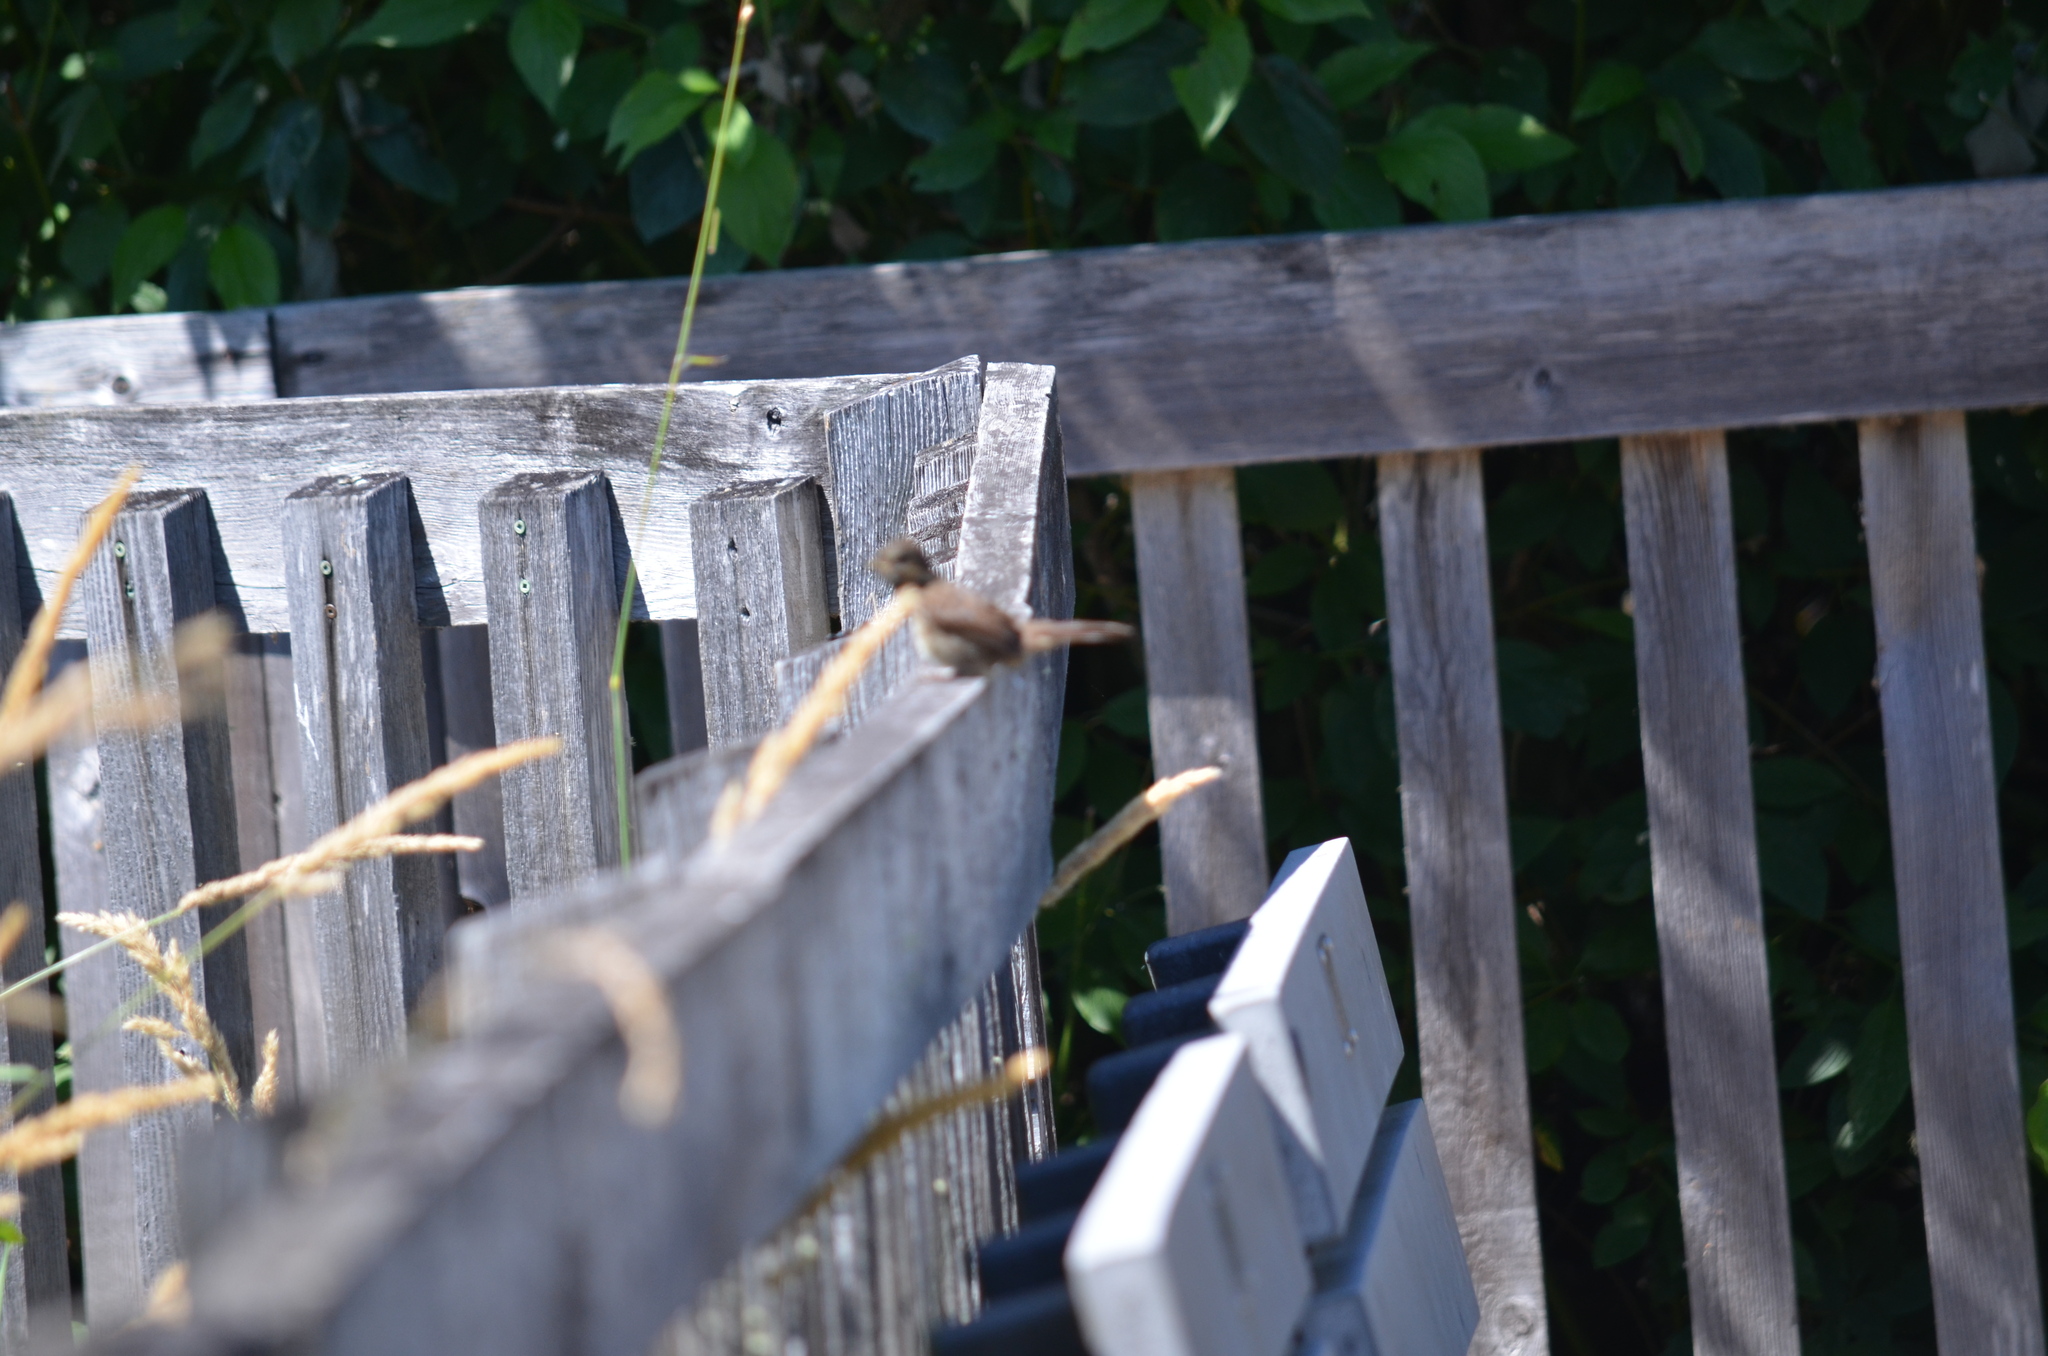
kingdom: Animalia
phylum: Chordata
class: Aves
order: Passeriformes
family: Passerellidae
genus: Melospiza
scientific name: Melospiza melodia
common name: Song sparrow
